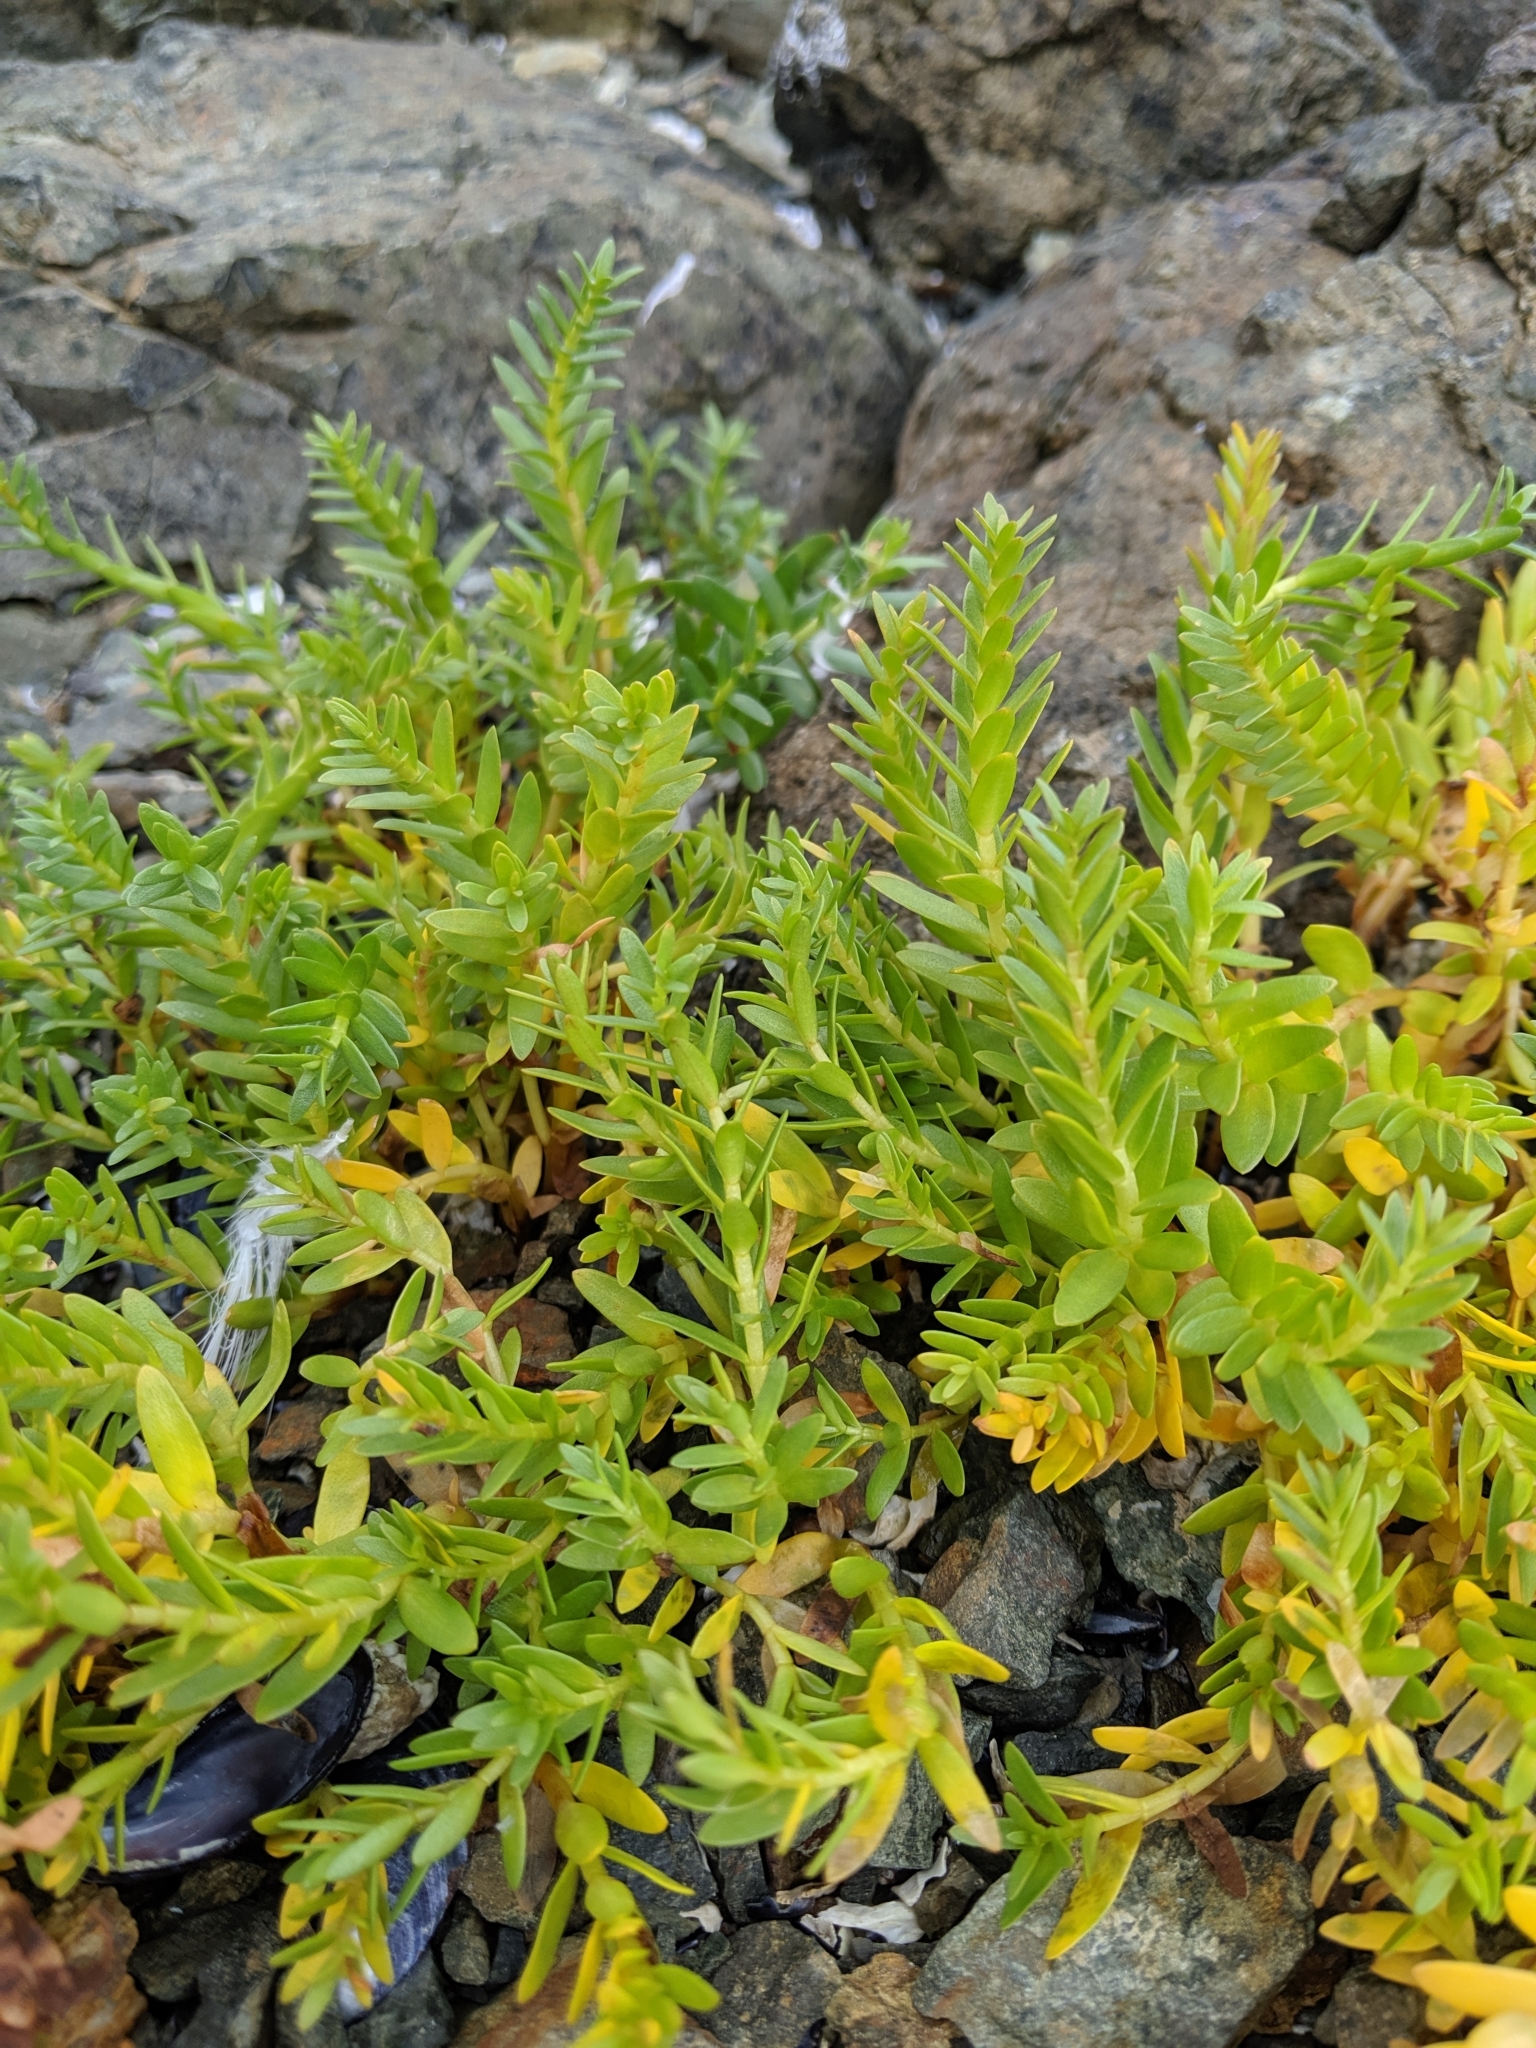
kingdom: Plantae
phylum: Tracheophyta
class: Magnoliopsida
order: Caryophyllales
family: Caryophyllaceae
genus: Honckenya
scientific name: Honckenya peploides
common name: Sea sandwort
